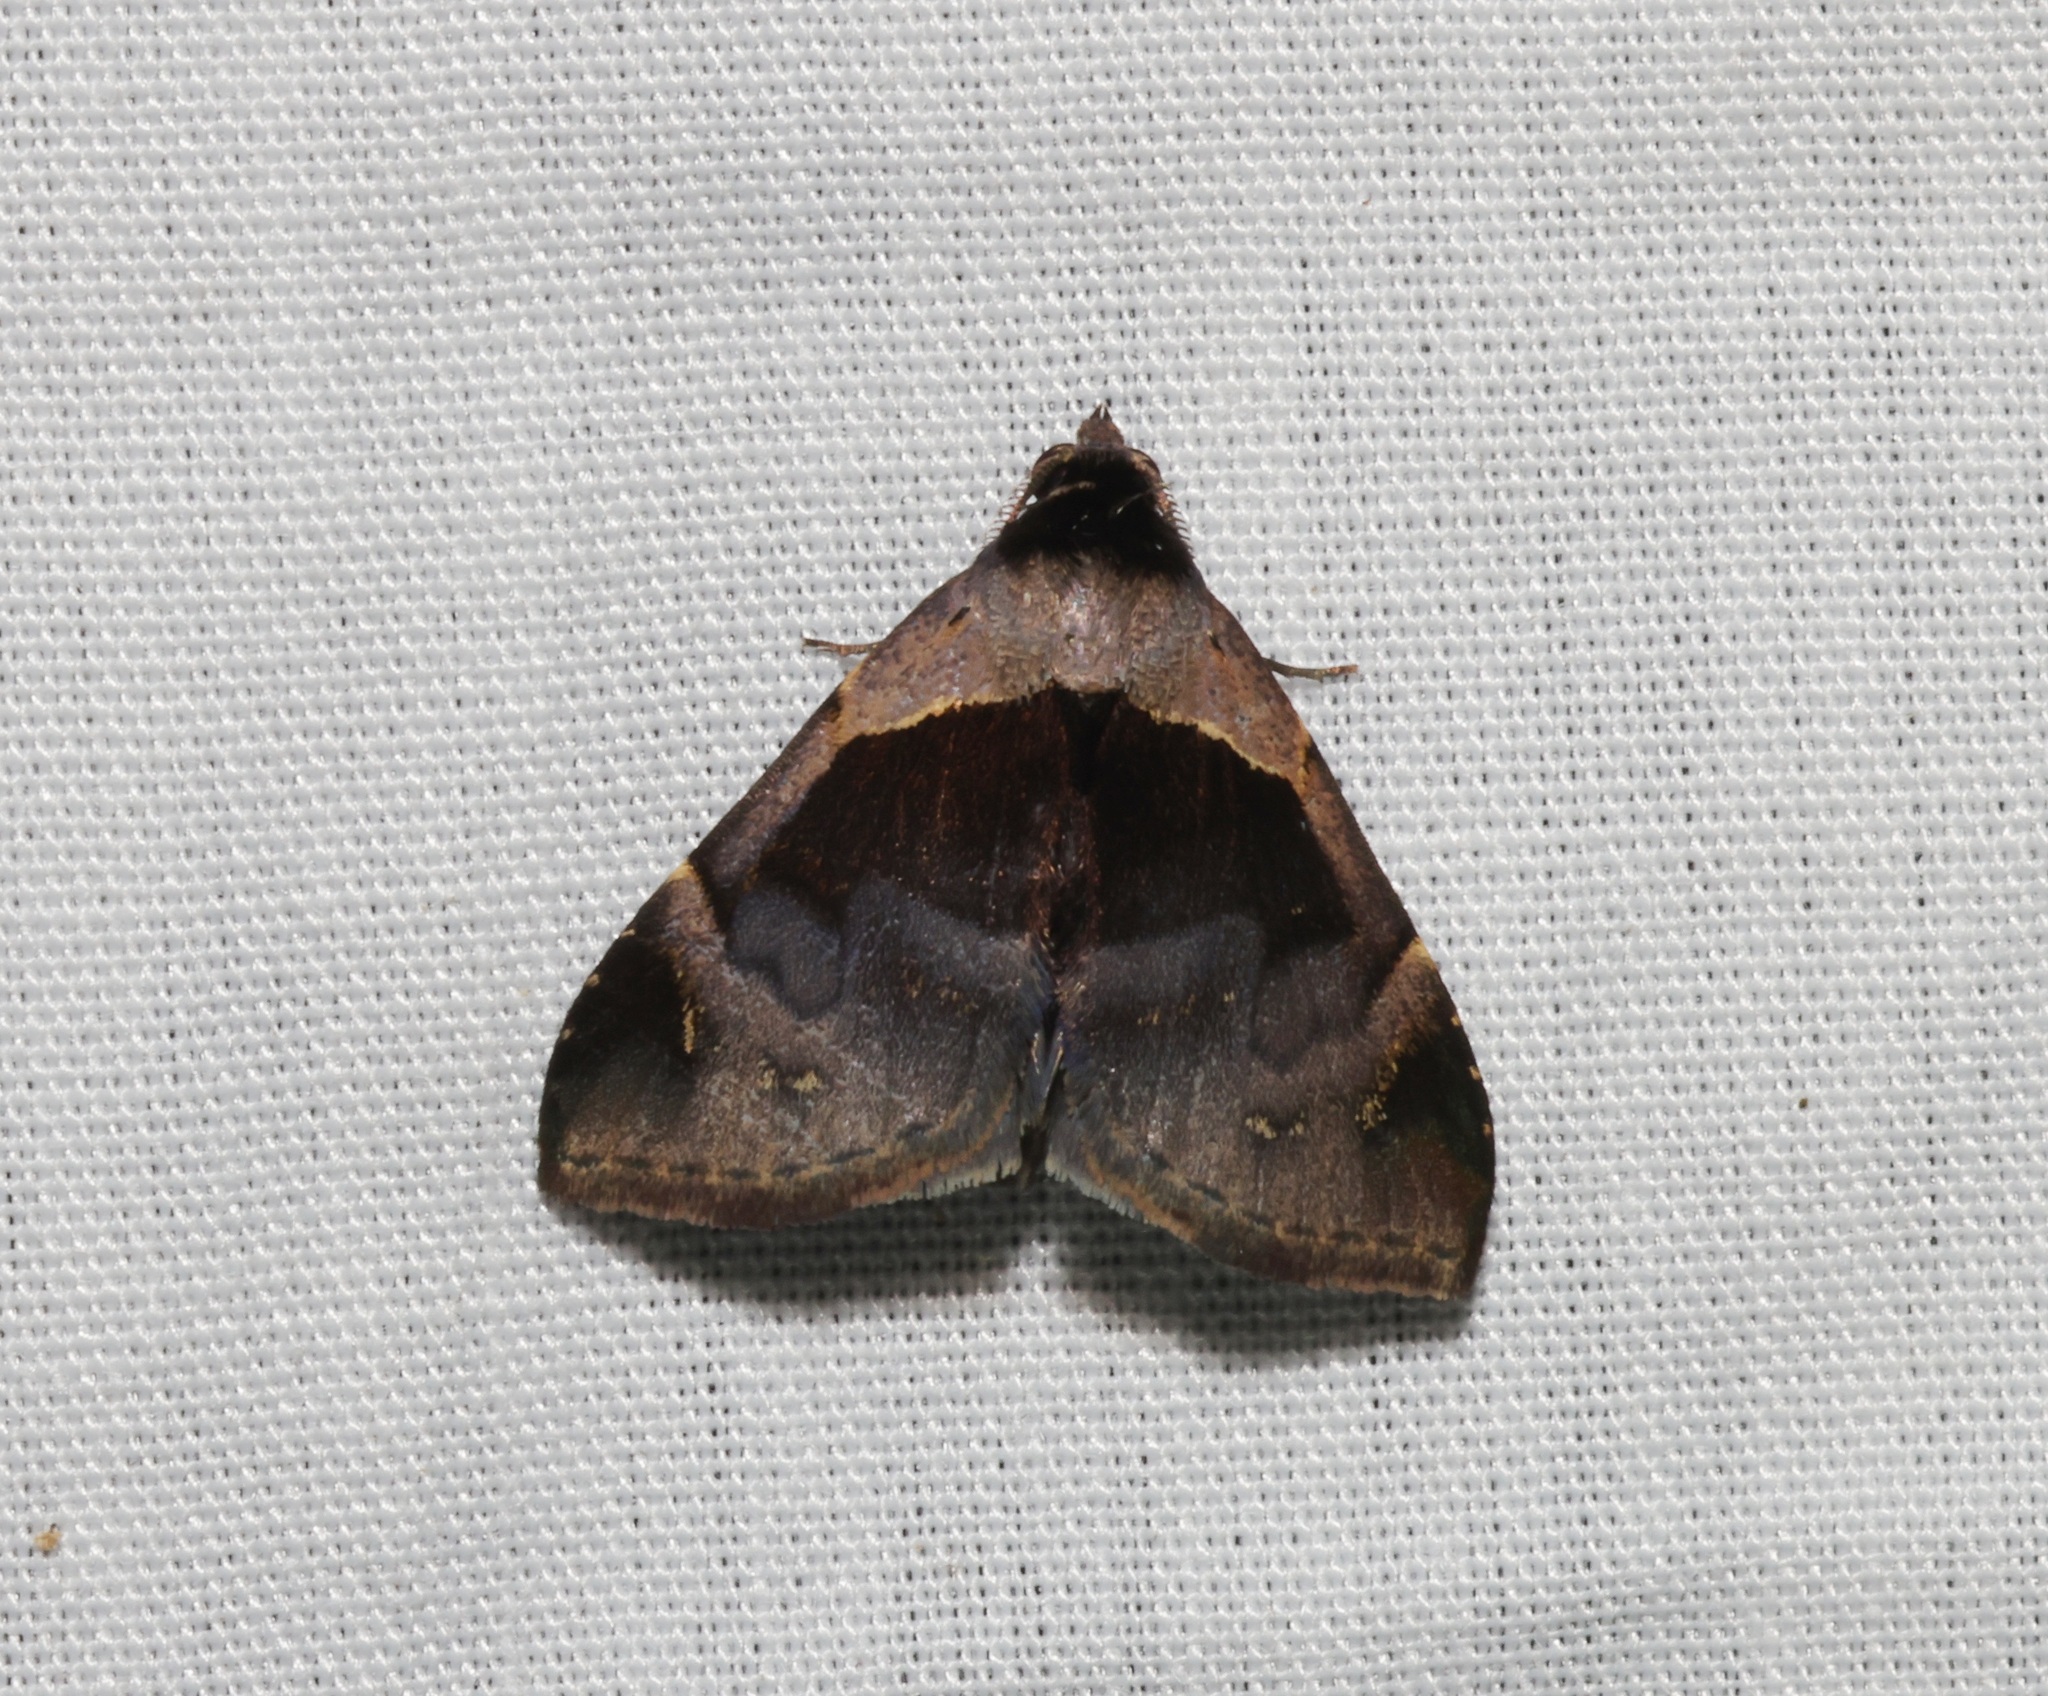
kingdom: Animalia
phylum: Arthropoda
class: Insecta
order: Lepidoptera
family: Erebidae
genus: Crithote
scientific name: Crithote prominens
